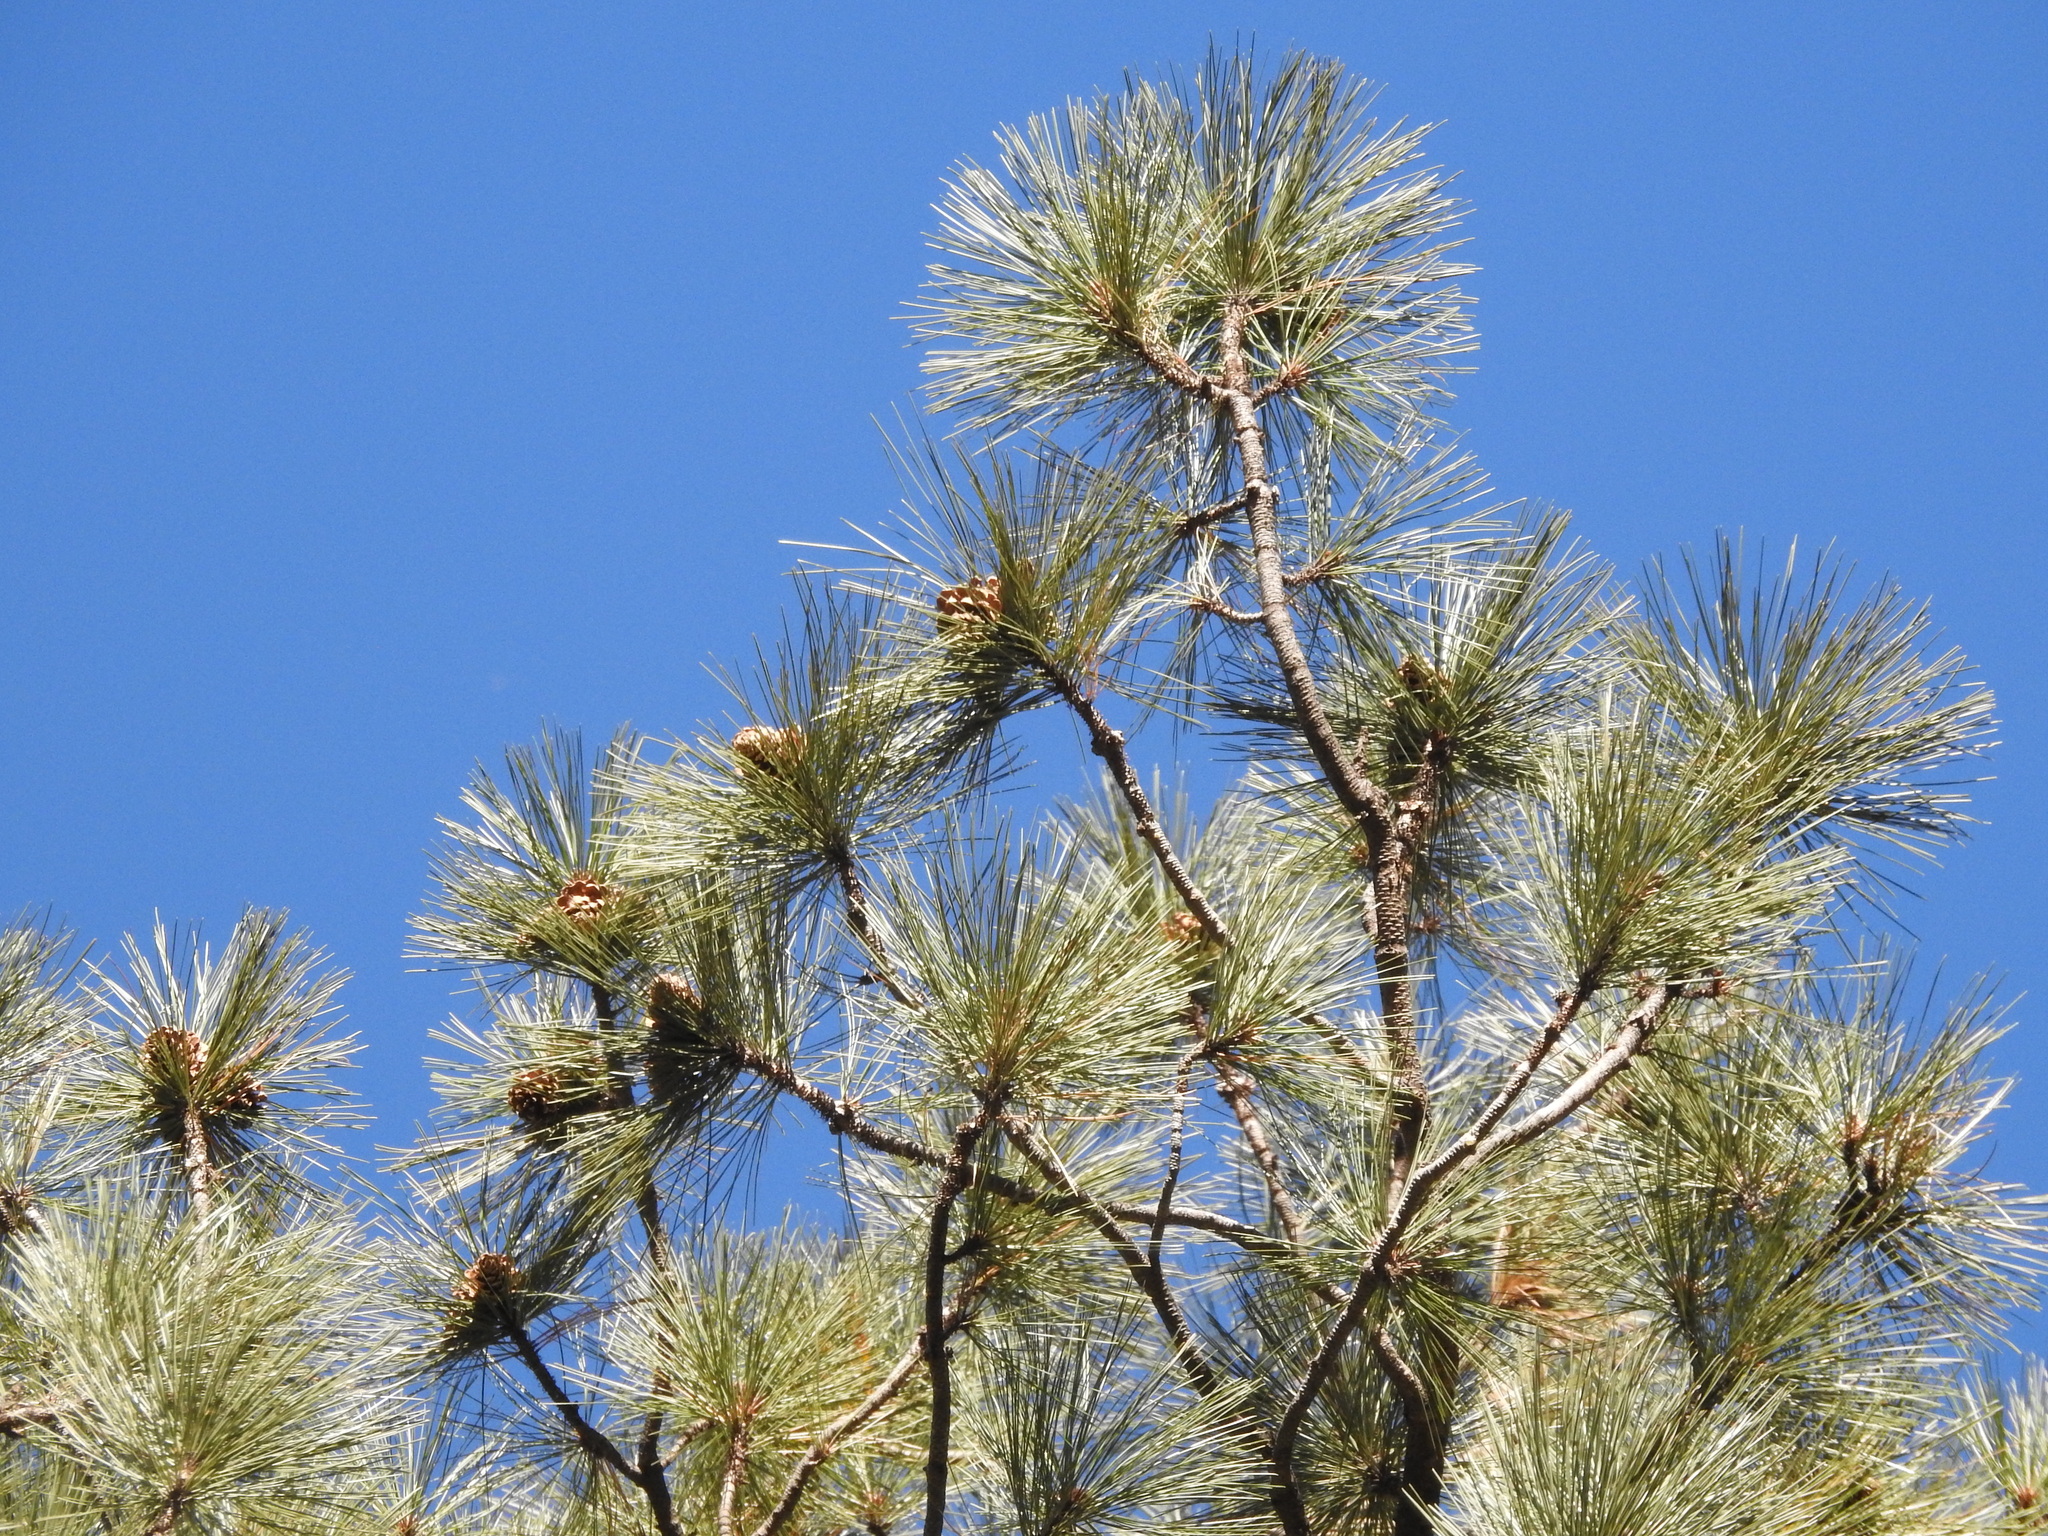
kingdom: Plantae
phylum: Tracheophyta
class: Pinopsida
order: Pinales
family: Pinaceae
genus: Pinus
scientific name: Pinus ponderosa
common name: Western yellow-pine
